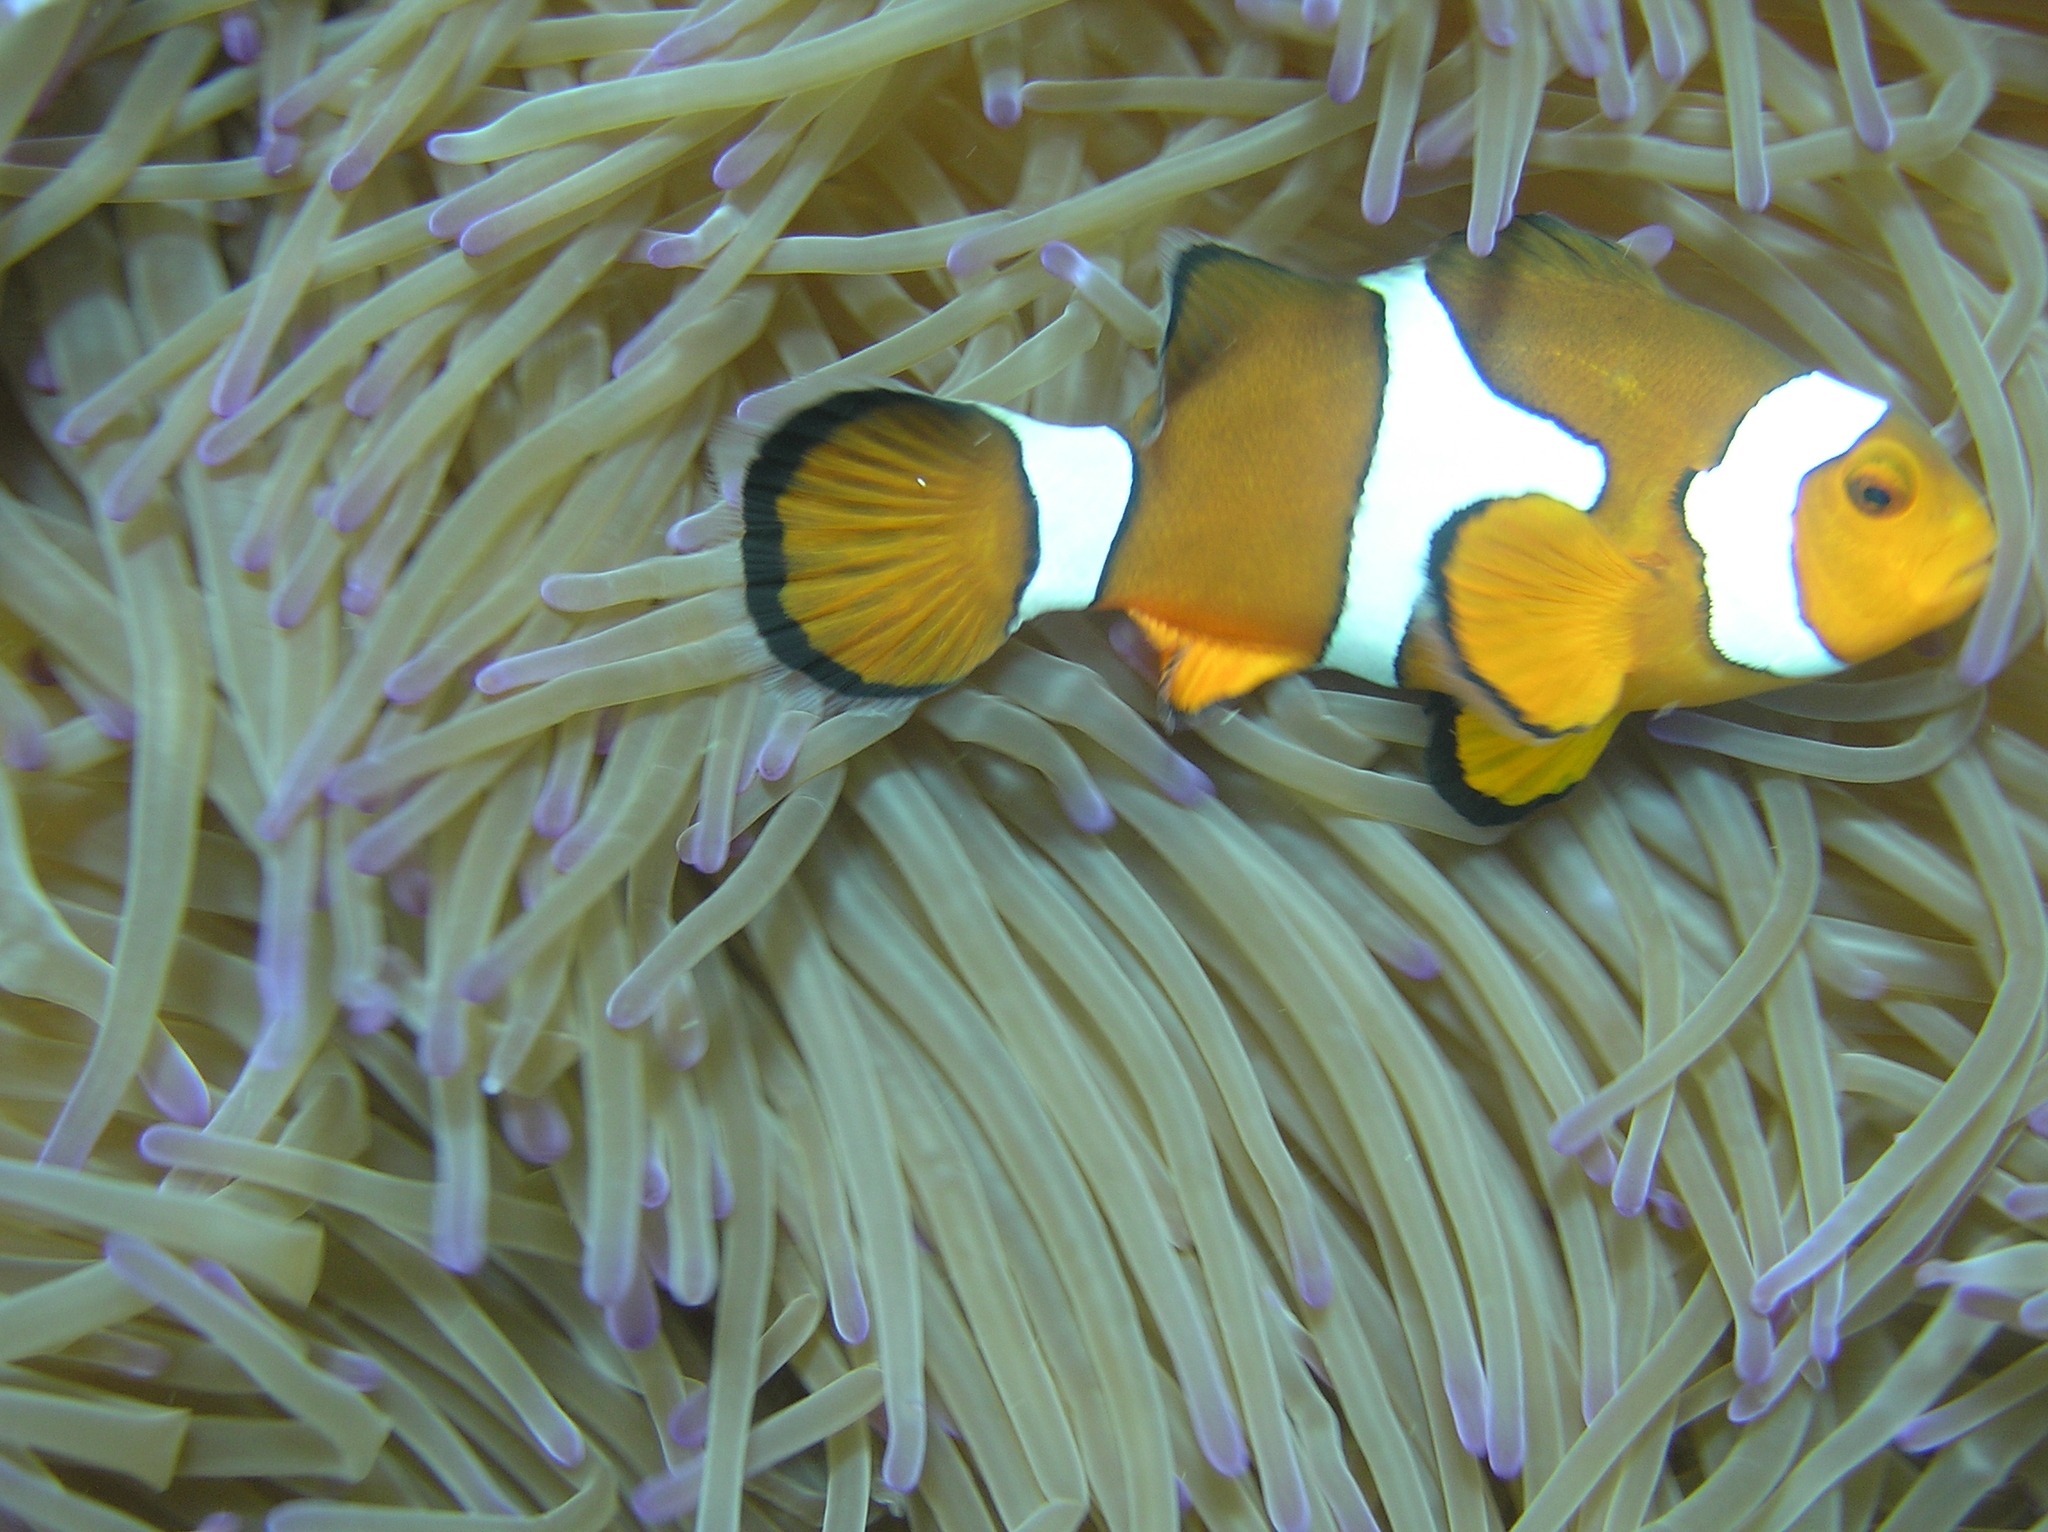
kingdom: Animalia
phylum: Chordata
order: Perciformes
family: Pomacentridae
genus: Amphiprion
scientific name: Amphiprion percula
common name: Clown anemonefish
